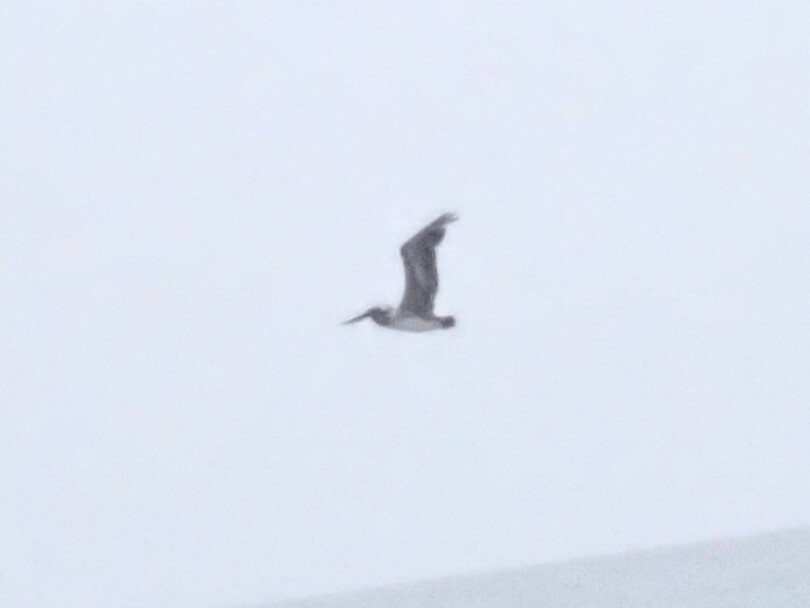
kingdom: Animalia
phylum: Chordata
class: Aves
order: Pelecaniformes
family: Pelecanidae
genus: Pelecanus
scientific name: Pelecanus occidentalis
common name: Brown pelican
